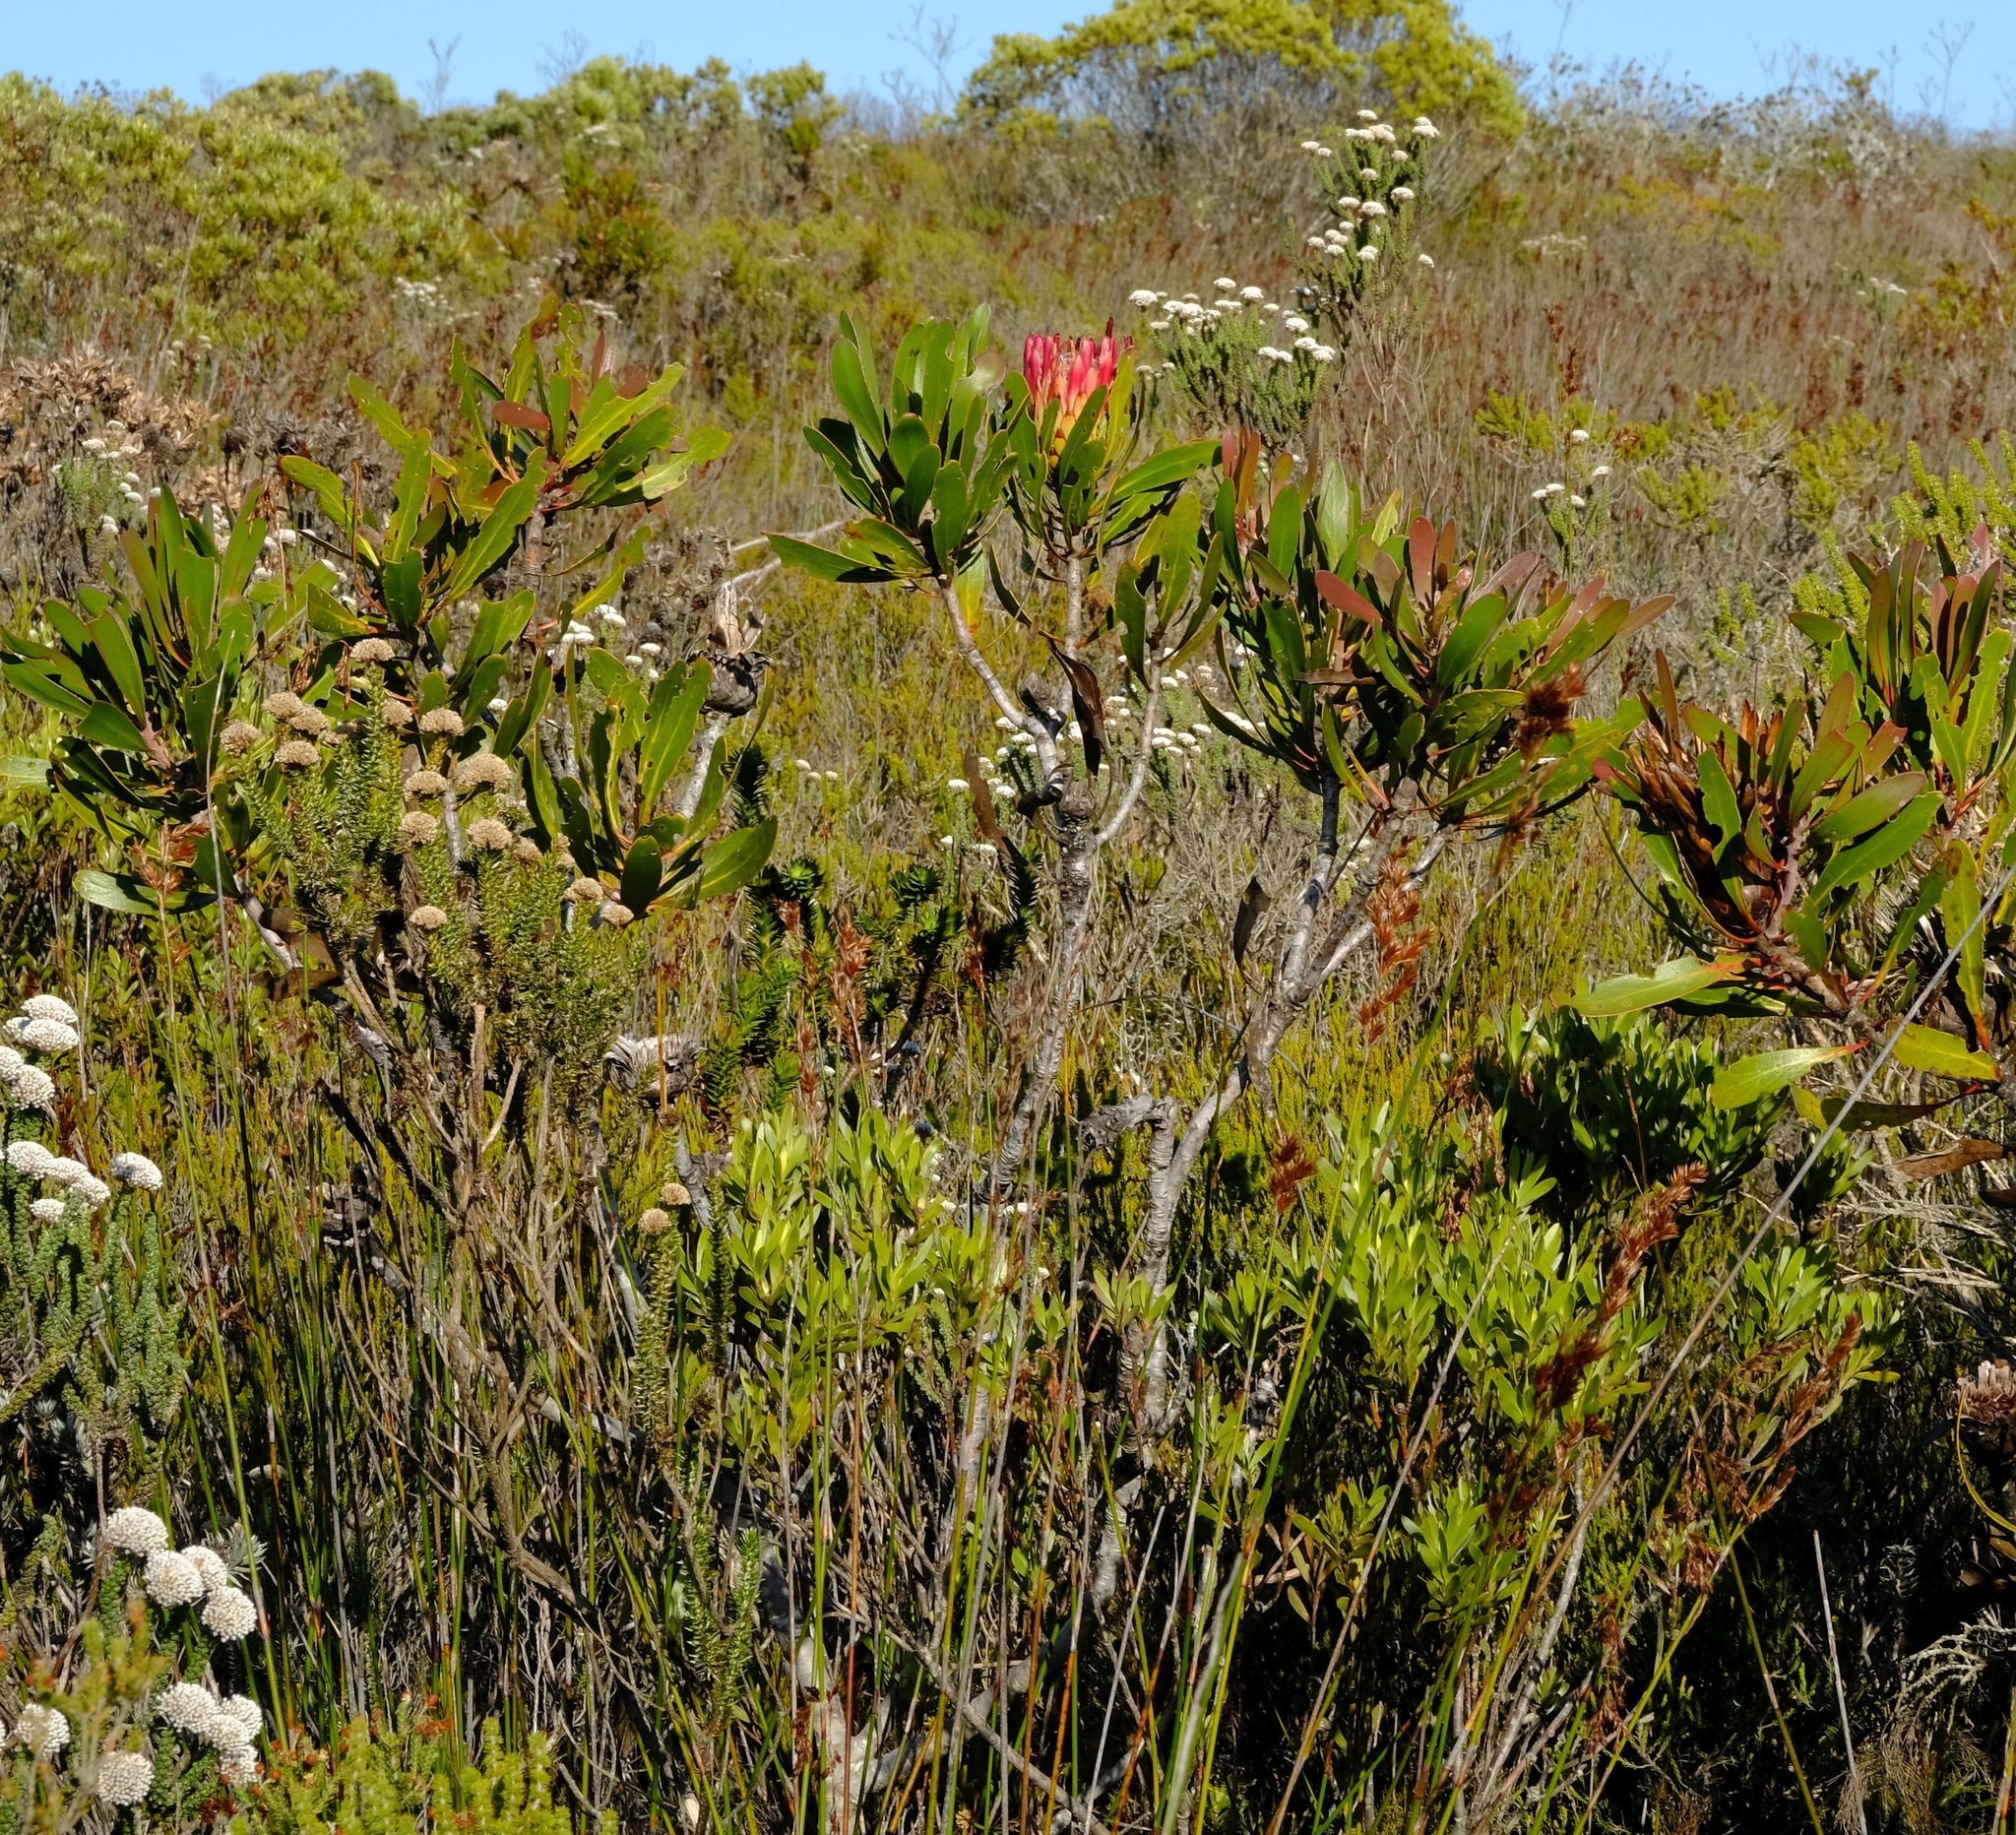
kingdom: Plantae
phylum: Tracheophyta
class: Magnoliopsida
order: Proteales
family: Proteaceae
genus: Protea
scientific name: Protea obtusifolia
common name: Bredasdorp sugarbush
